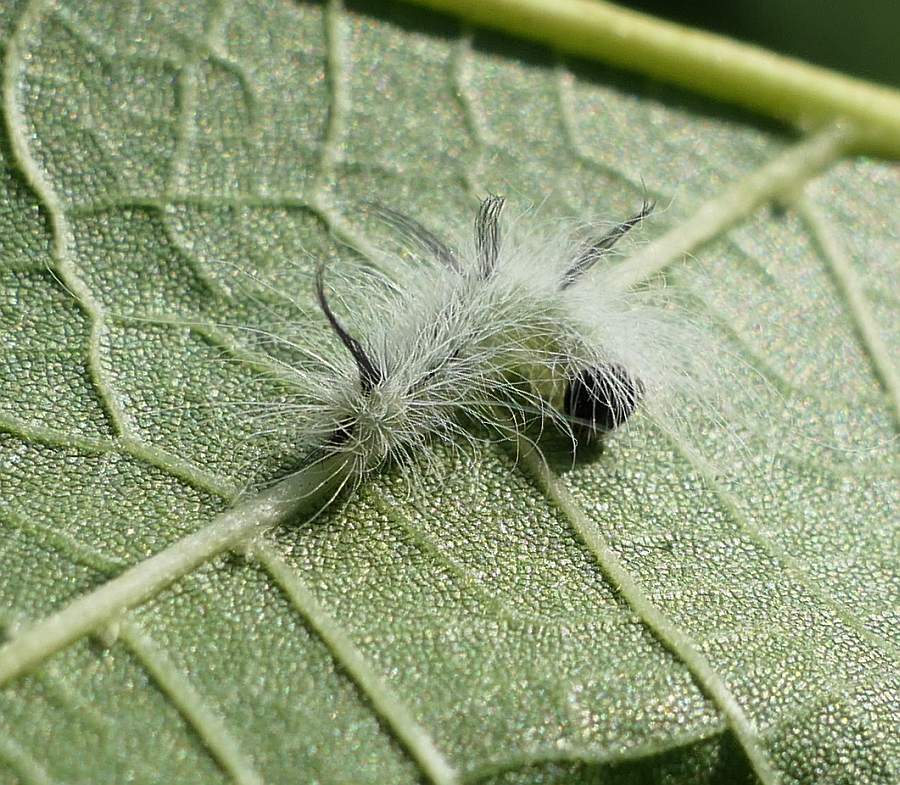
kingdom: Animalia
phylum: Arthropoda
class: Insecta
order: Lepidoptera
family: Noctuidae
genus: Acronicta
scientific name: Acronicta americana
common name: American dagger
